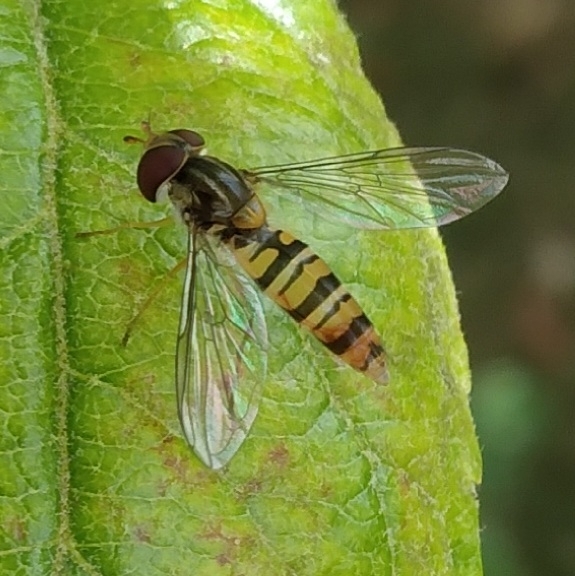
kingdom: Animalia
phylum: Arthropoda
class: Insecta
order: Diptera
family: Syrphidae
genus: Episyrphus
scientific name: Episyrphus balteatus
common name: Marmalade hoverfly
